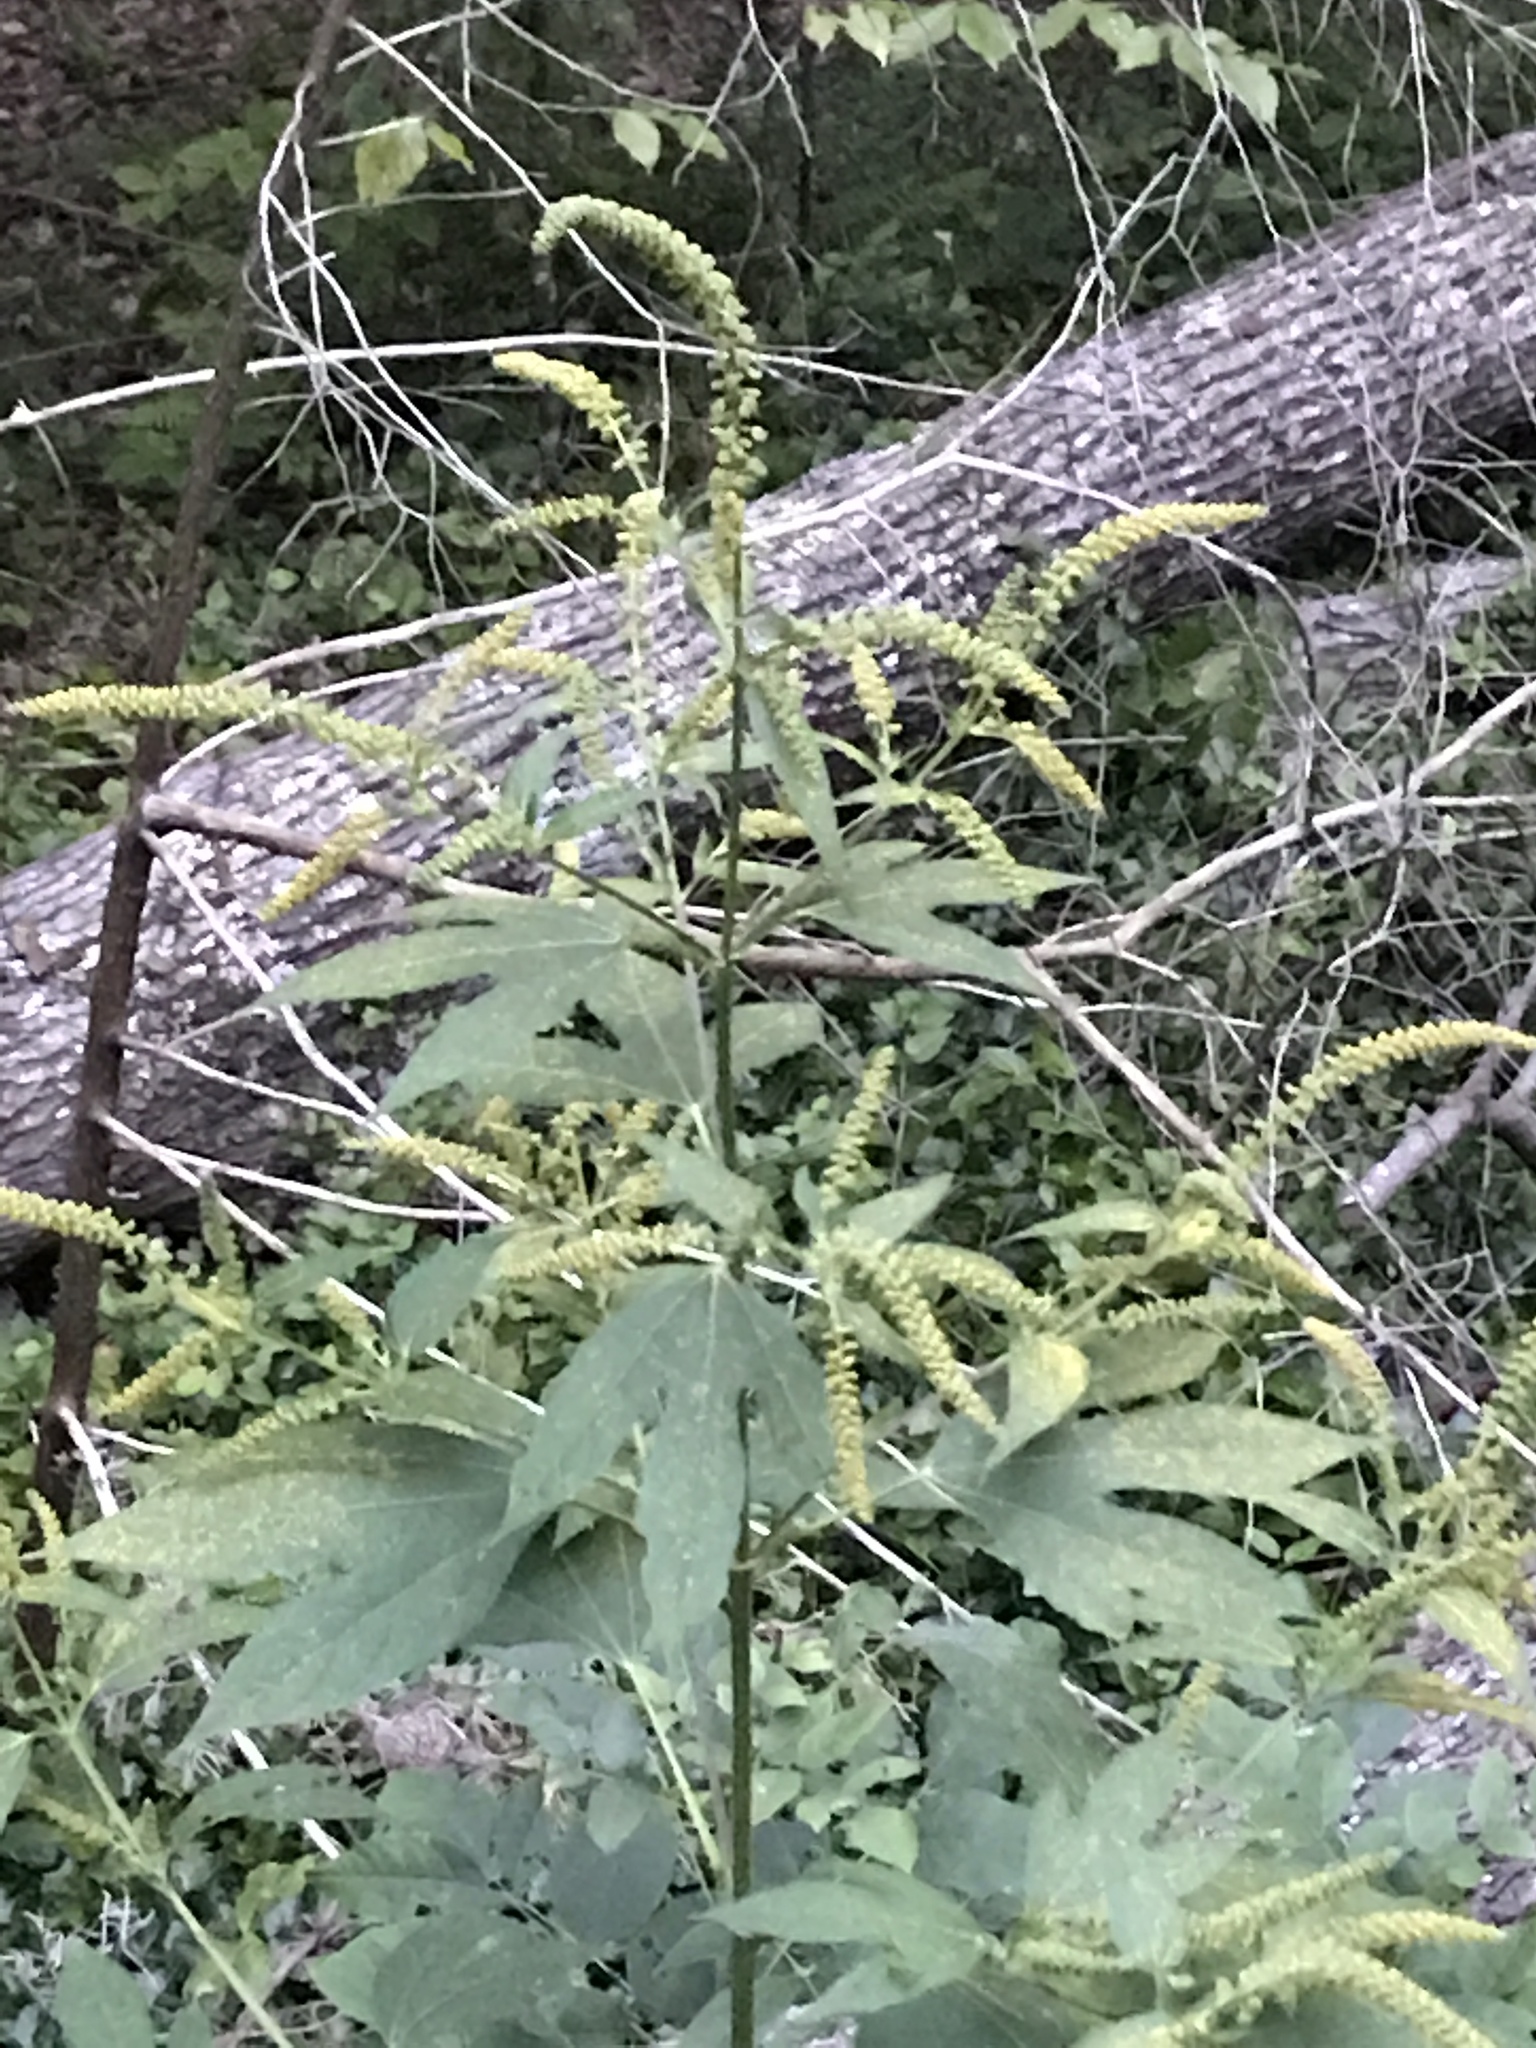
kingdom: Plantae
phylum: Tracheophyta
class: Magnoliopsida
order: Asterales
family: Asteraceae
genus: Ambrosia
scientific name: Ambrosia trifida
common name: Giant ragweed
